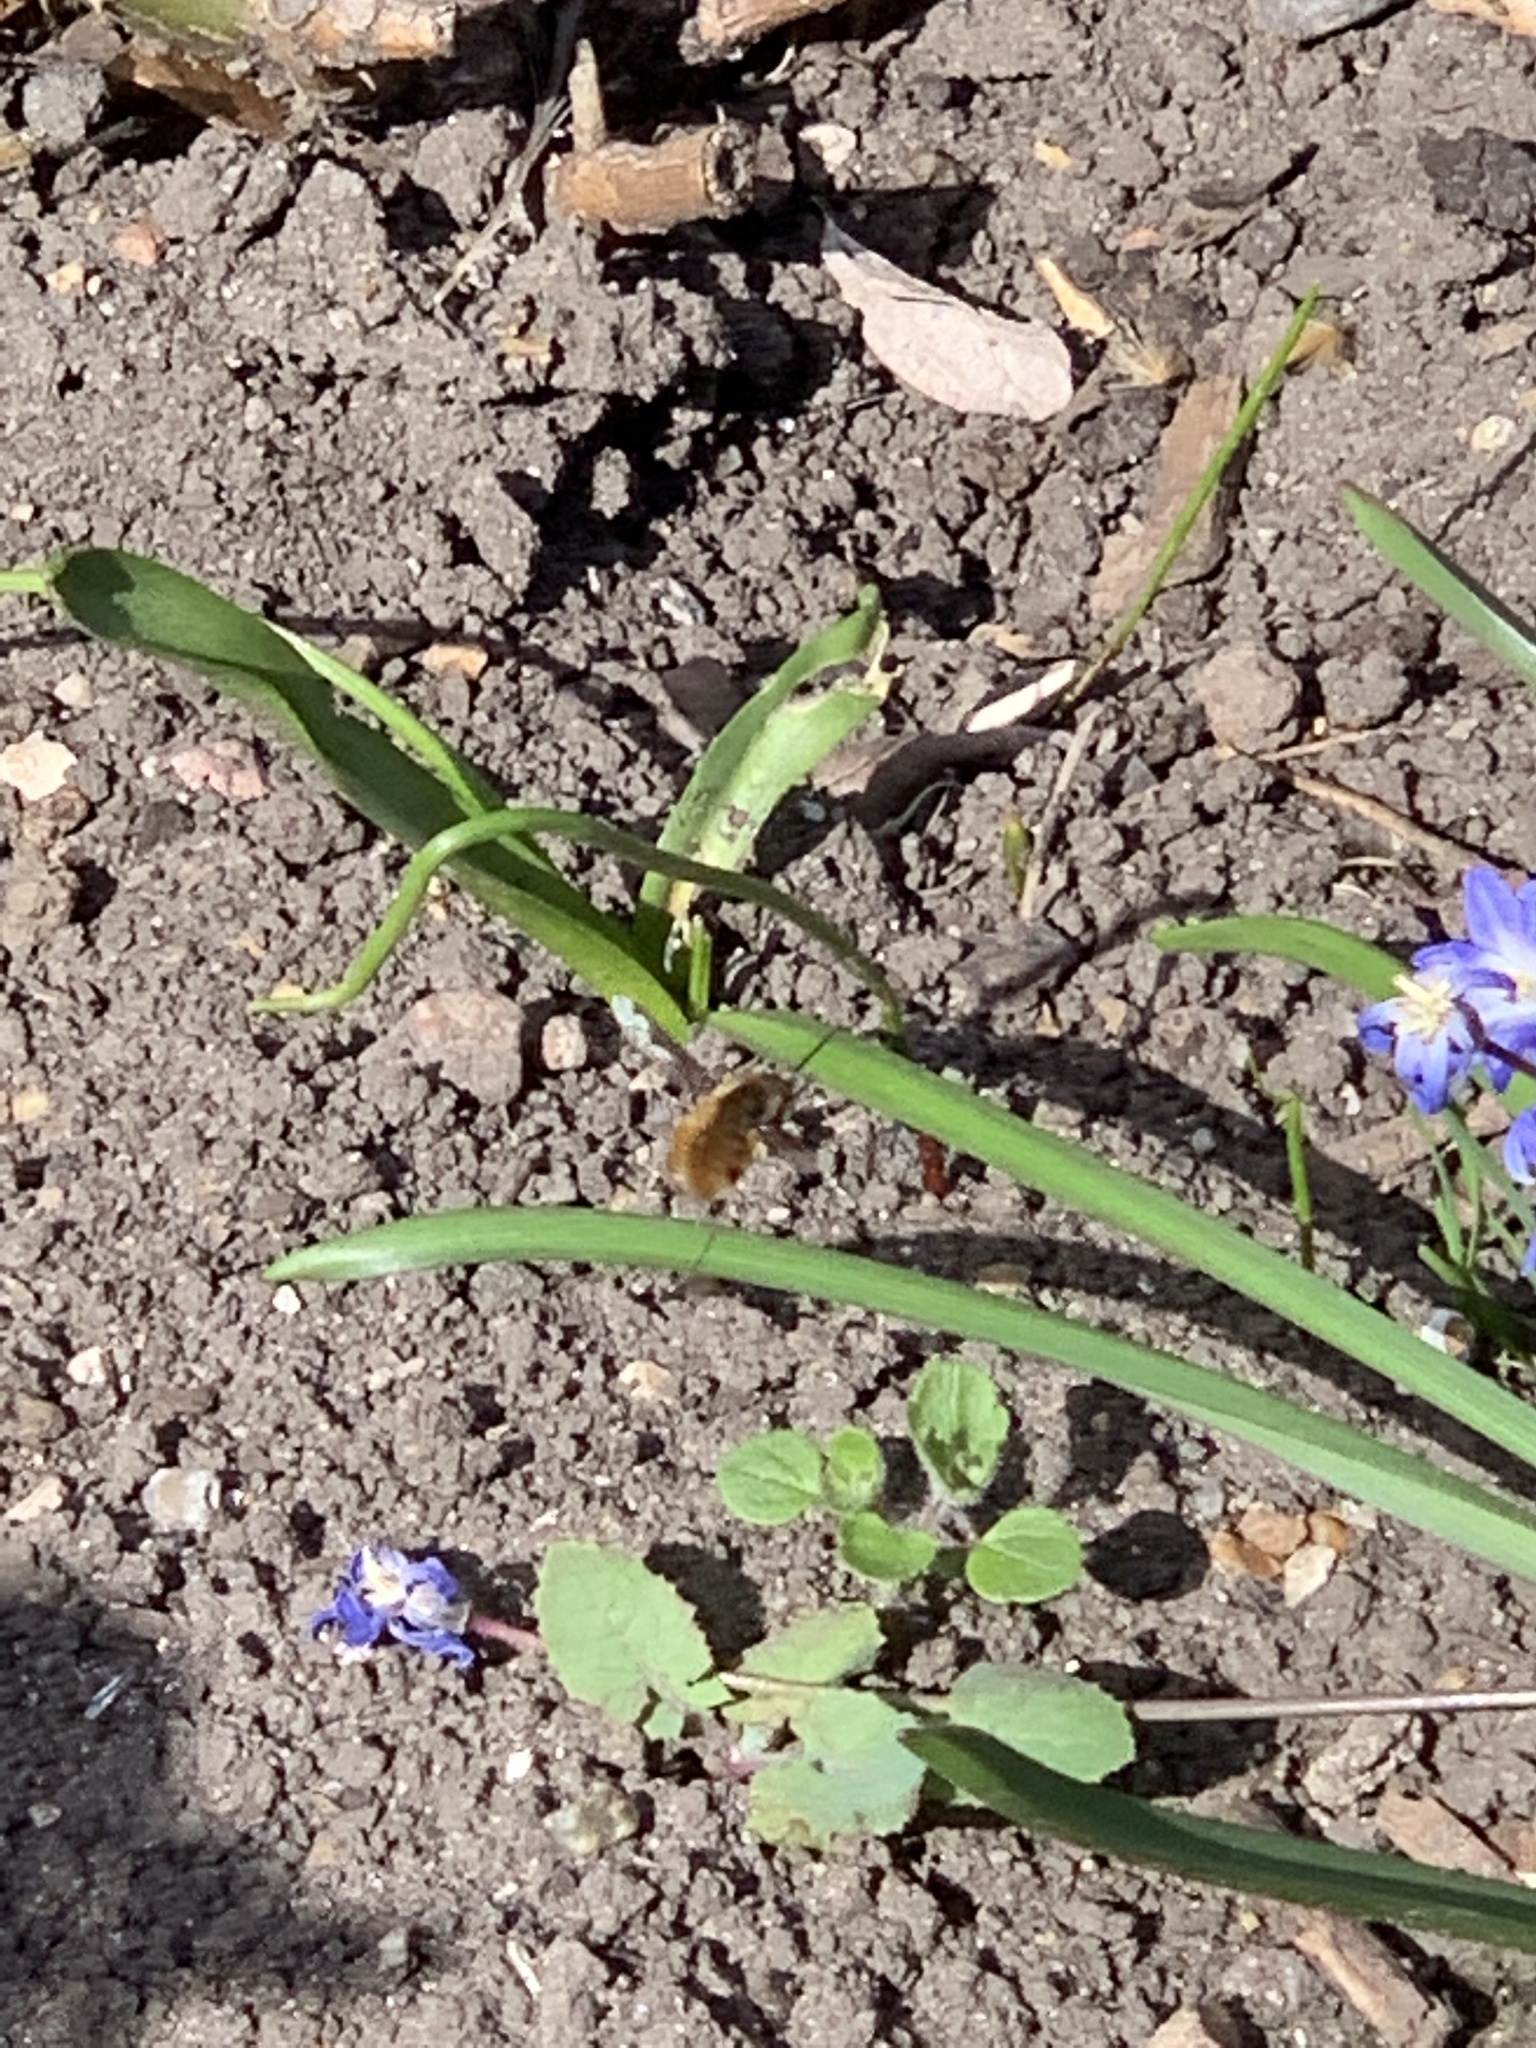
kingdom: Animalia
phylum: Arthropoda
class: Insecta
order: Diptera
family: Bombyliidae
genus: Bombylius
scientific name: Bombylius major
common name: Bee fly
